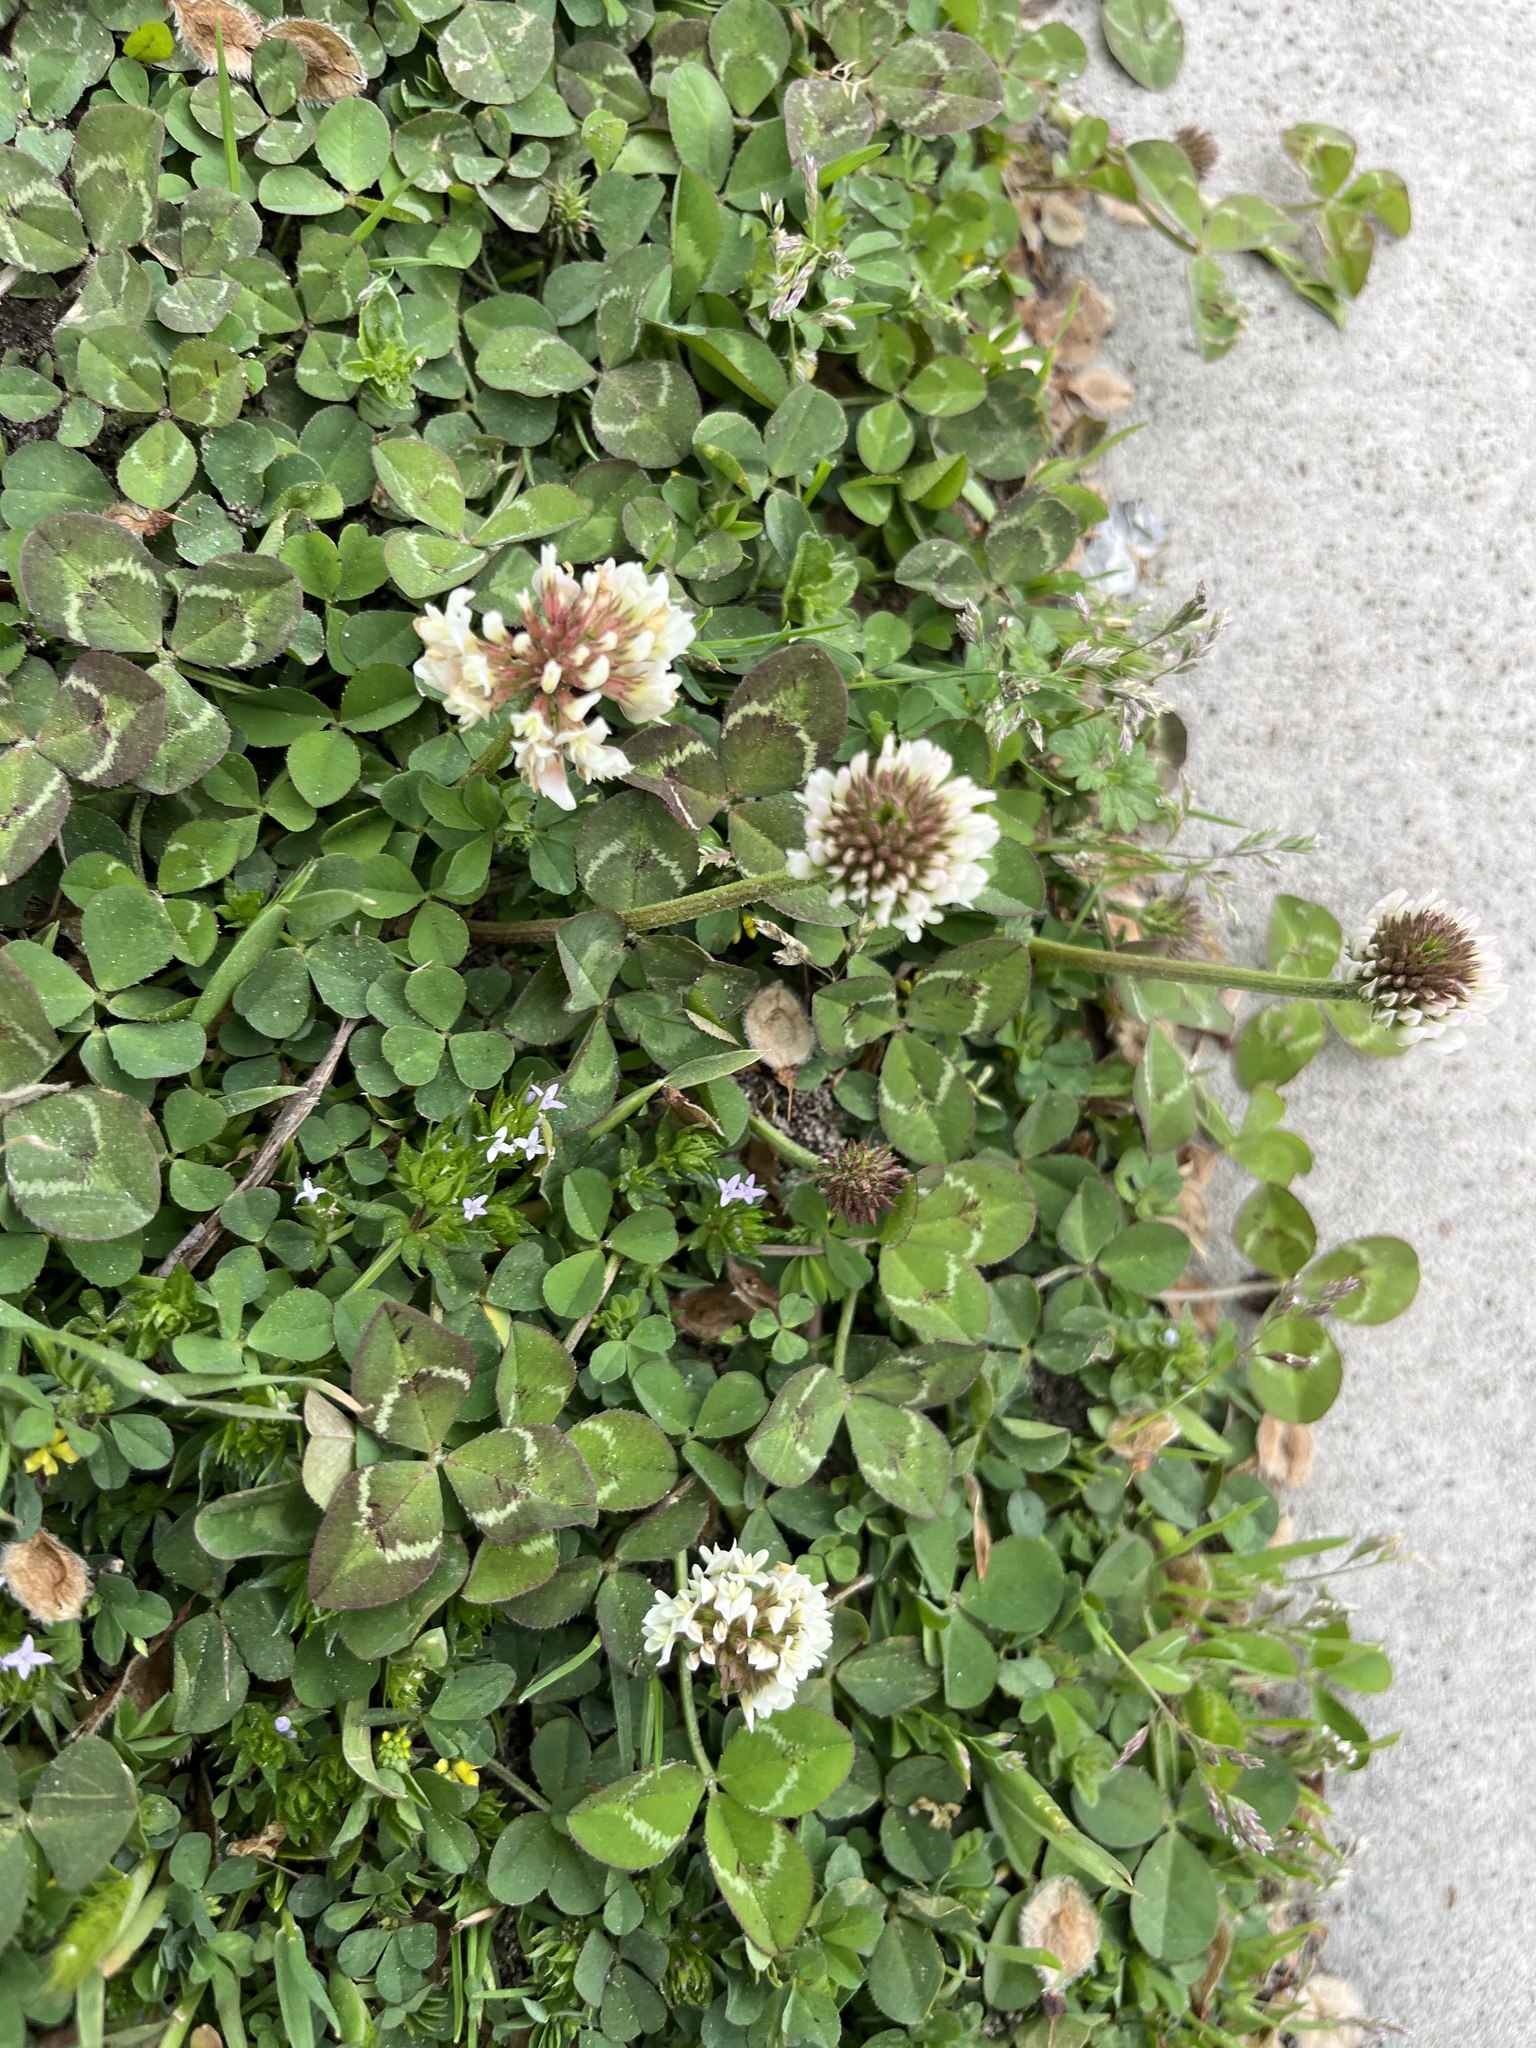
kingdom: Plantae
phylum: Tracheophyta
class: Magnoliopsida
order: Fabales
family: Fabaceae
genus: Trifolium
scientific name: Trifolium repens
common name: White clover
